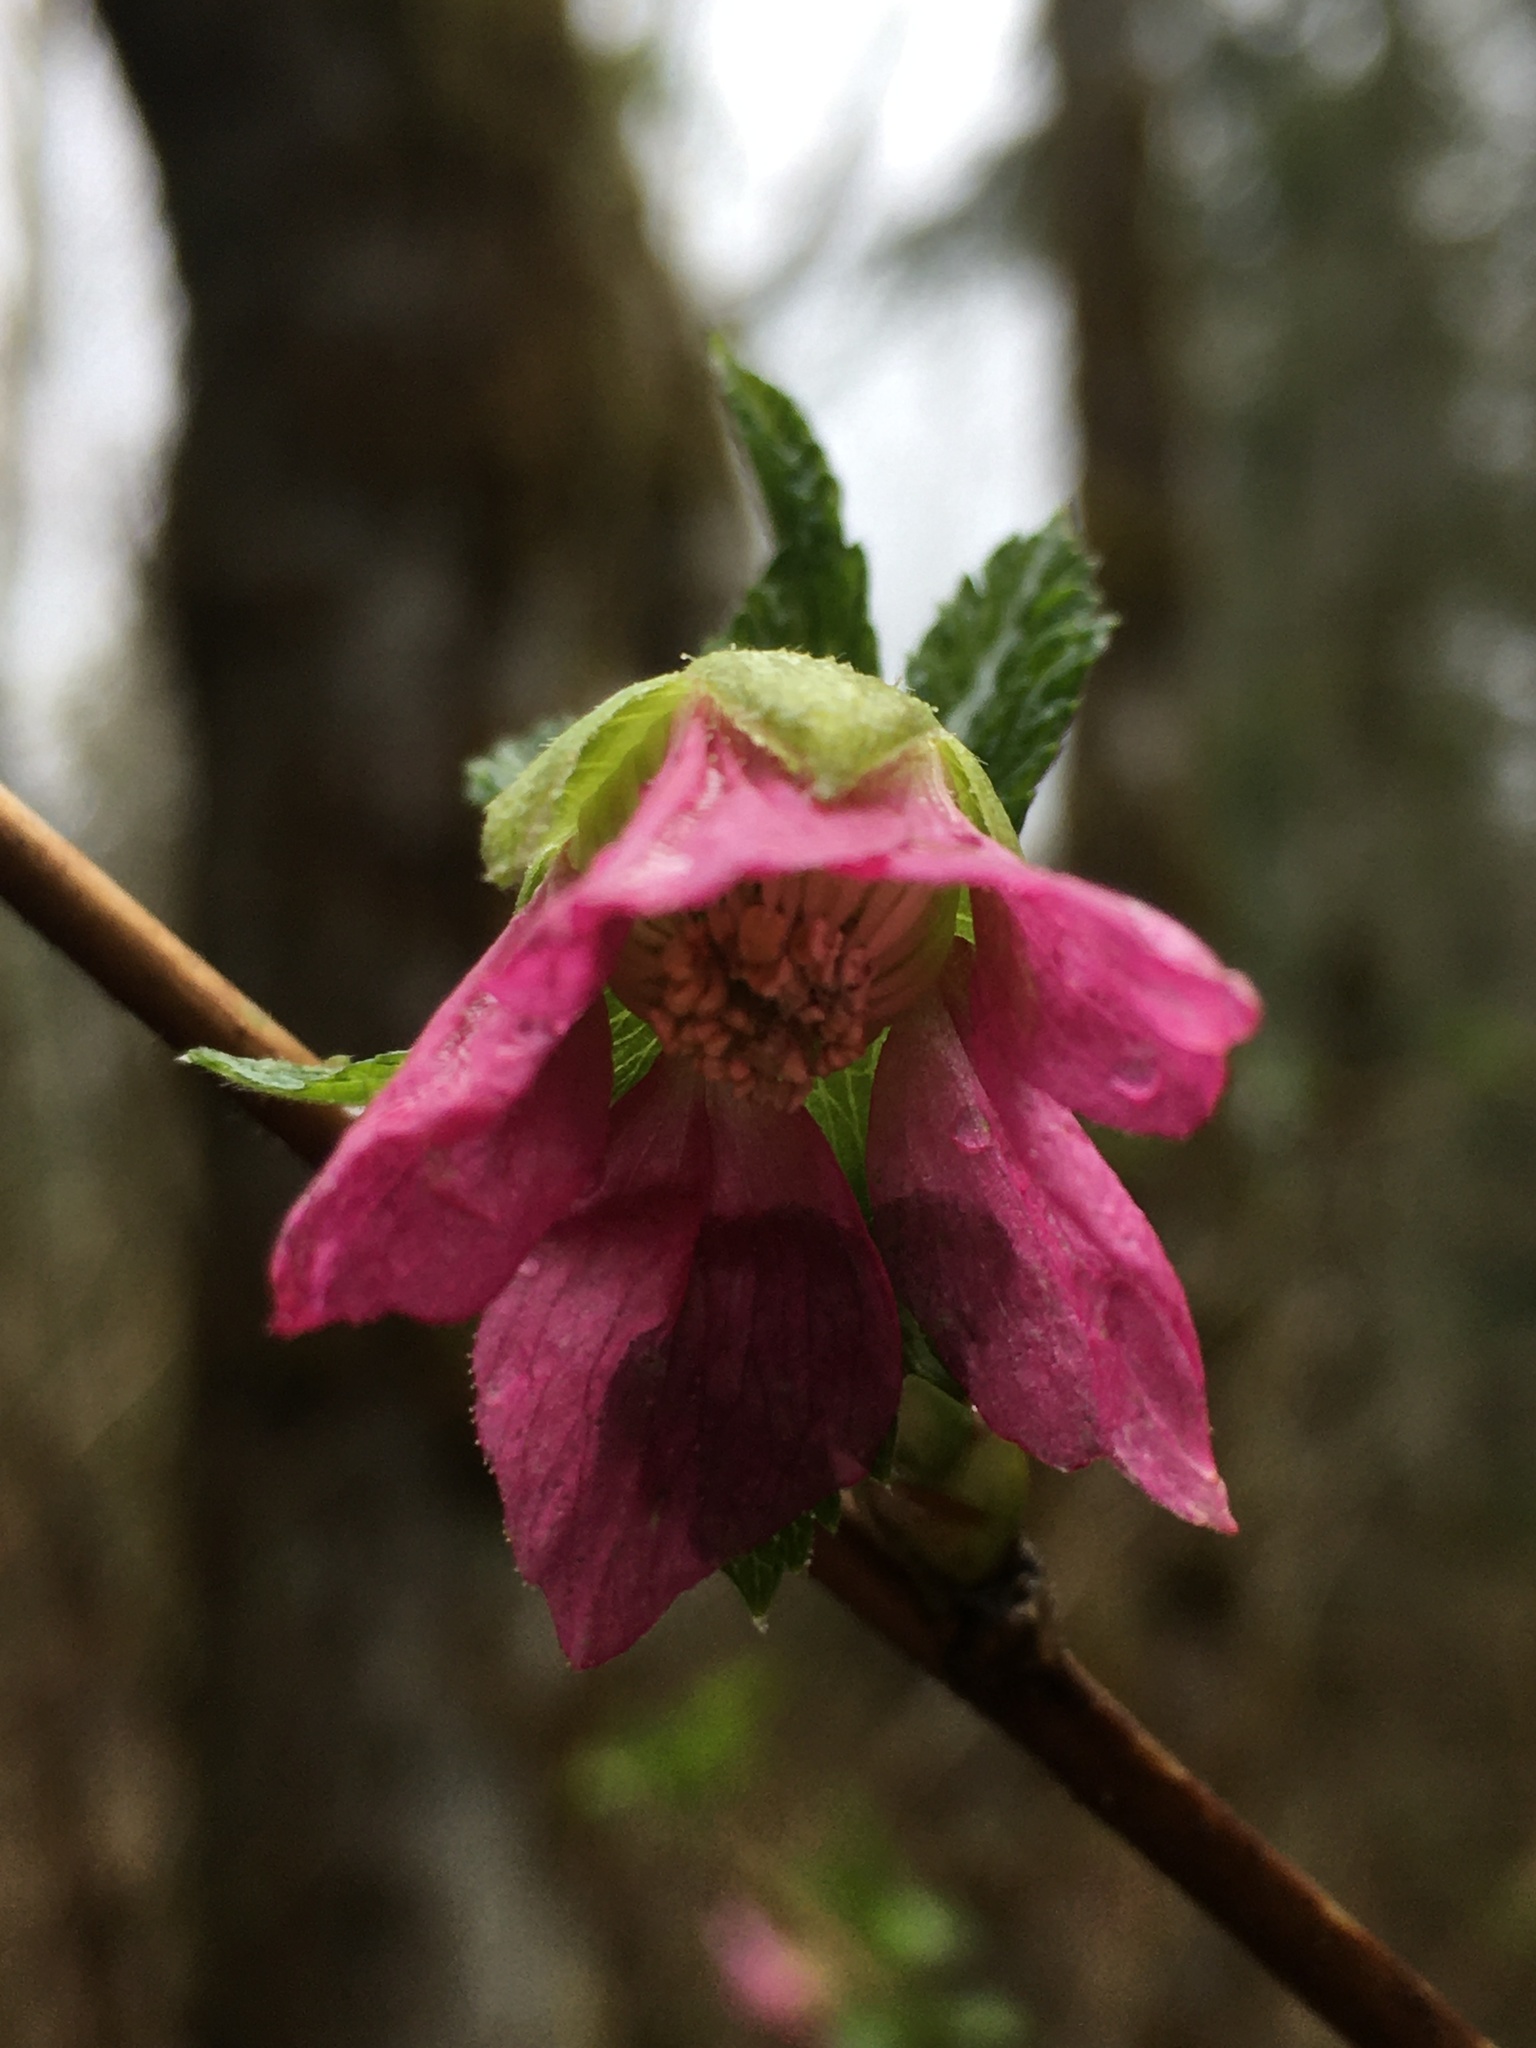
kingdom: Plantae
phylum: Tracheophyta
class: Magnoliopsida
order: Rosales
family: Rosaceae
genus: Rubus
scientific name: Rubus spectabilis
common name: Salmonberry
